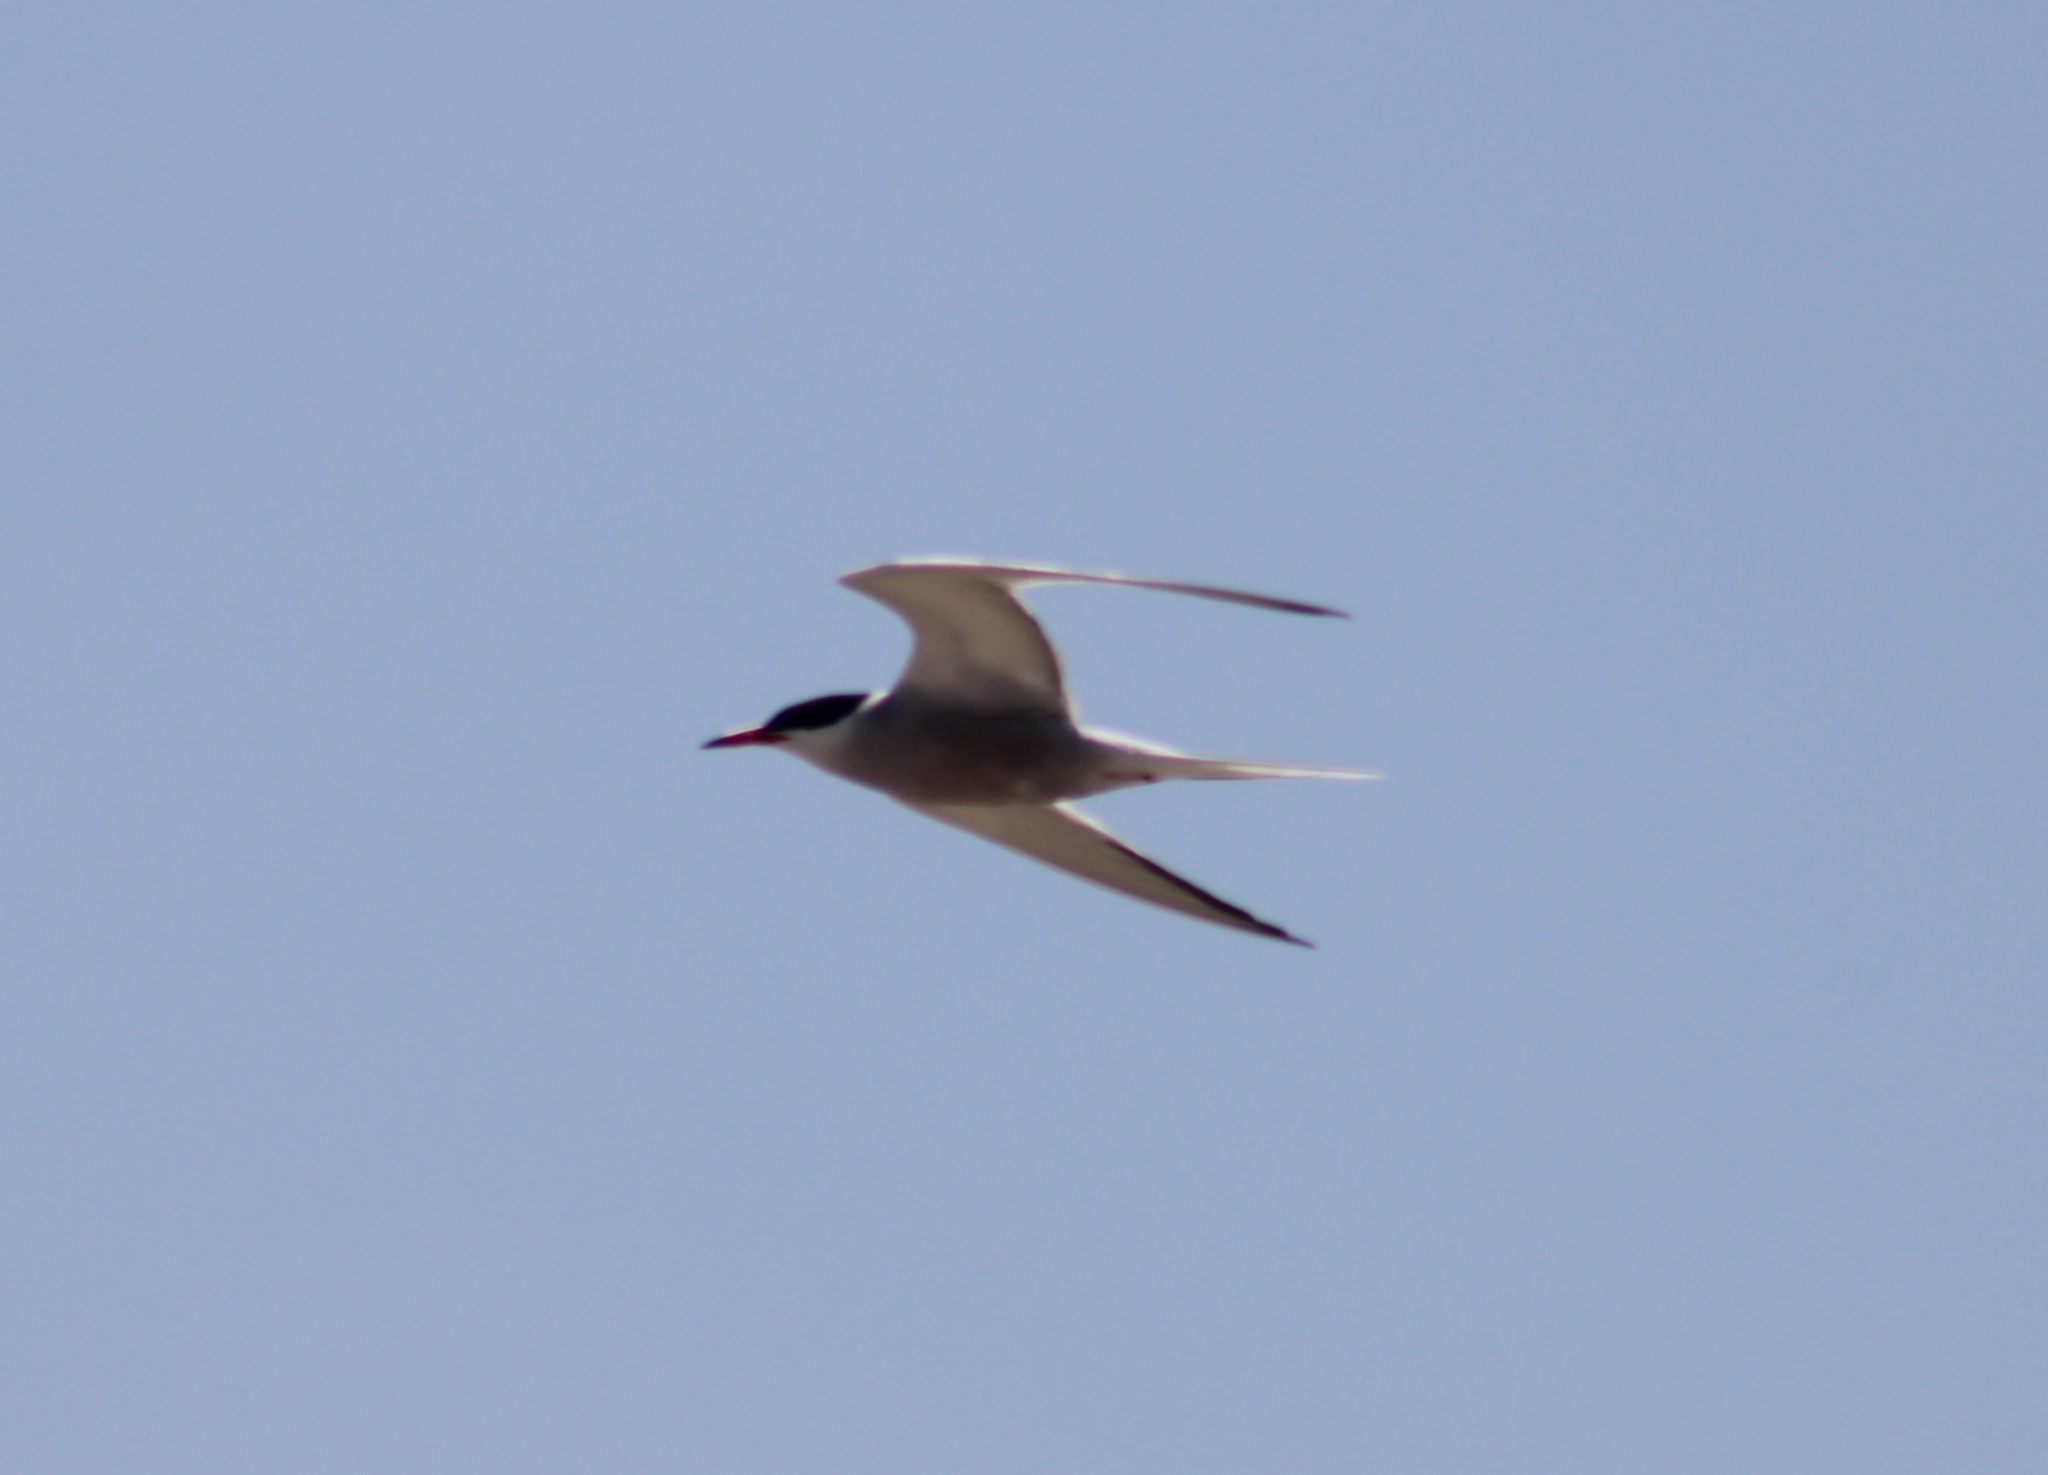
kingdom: Animalia
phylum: Chordata
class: Aves
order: Charadriiformes
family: Laridae
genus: Sterna
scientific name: Sterna hirundo
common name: Common tern
